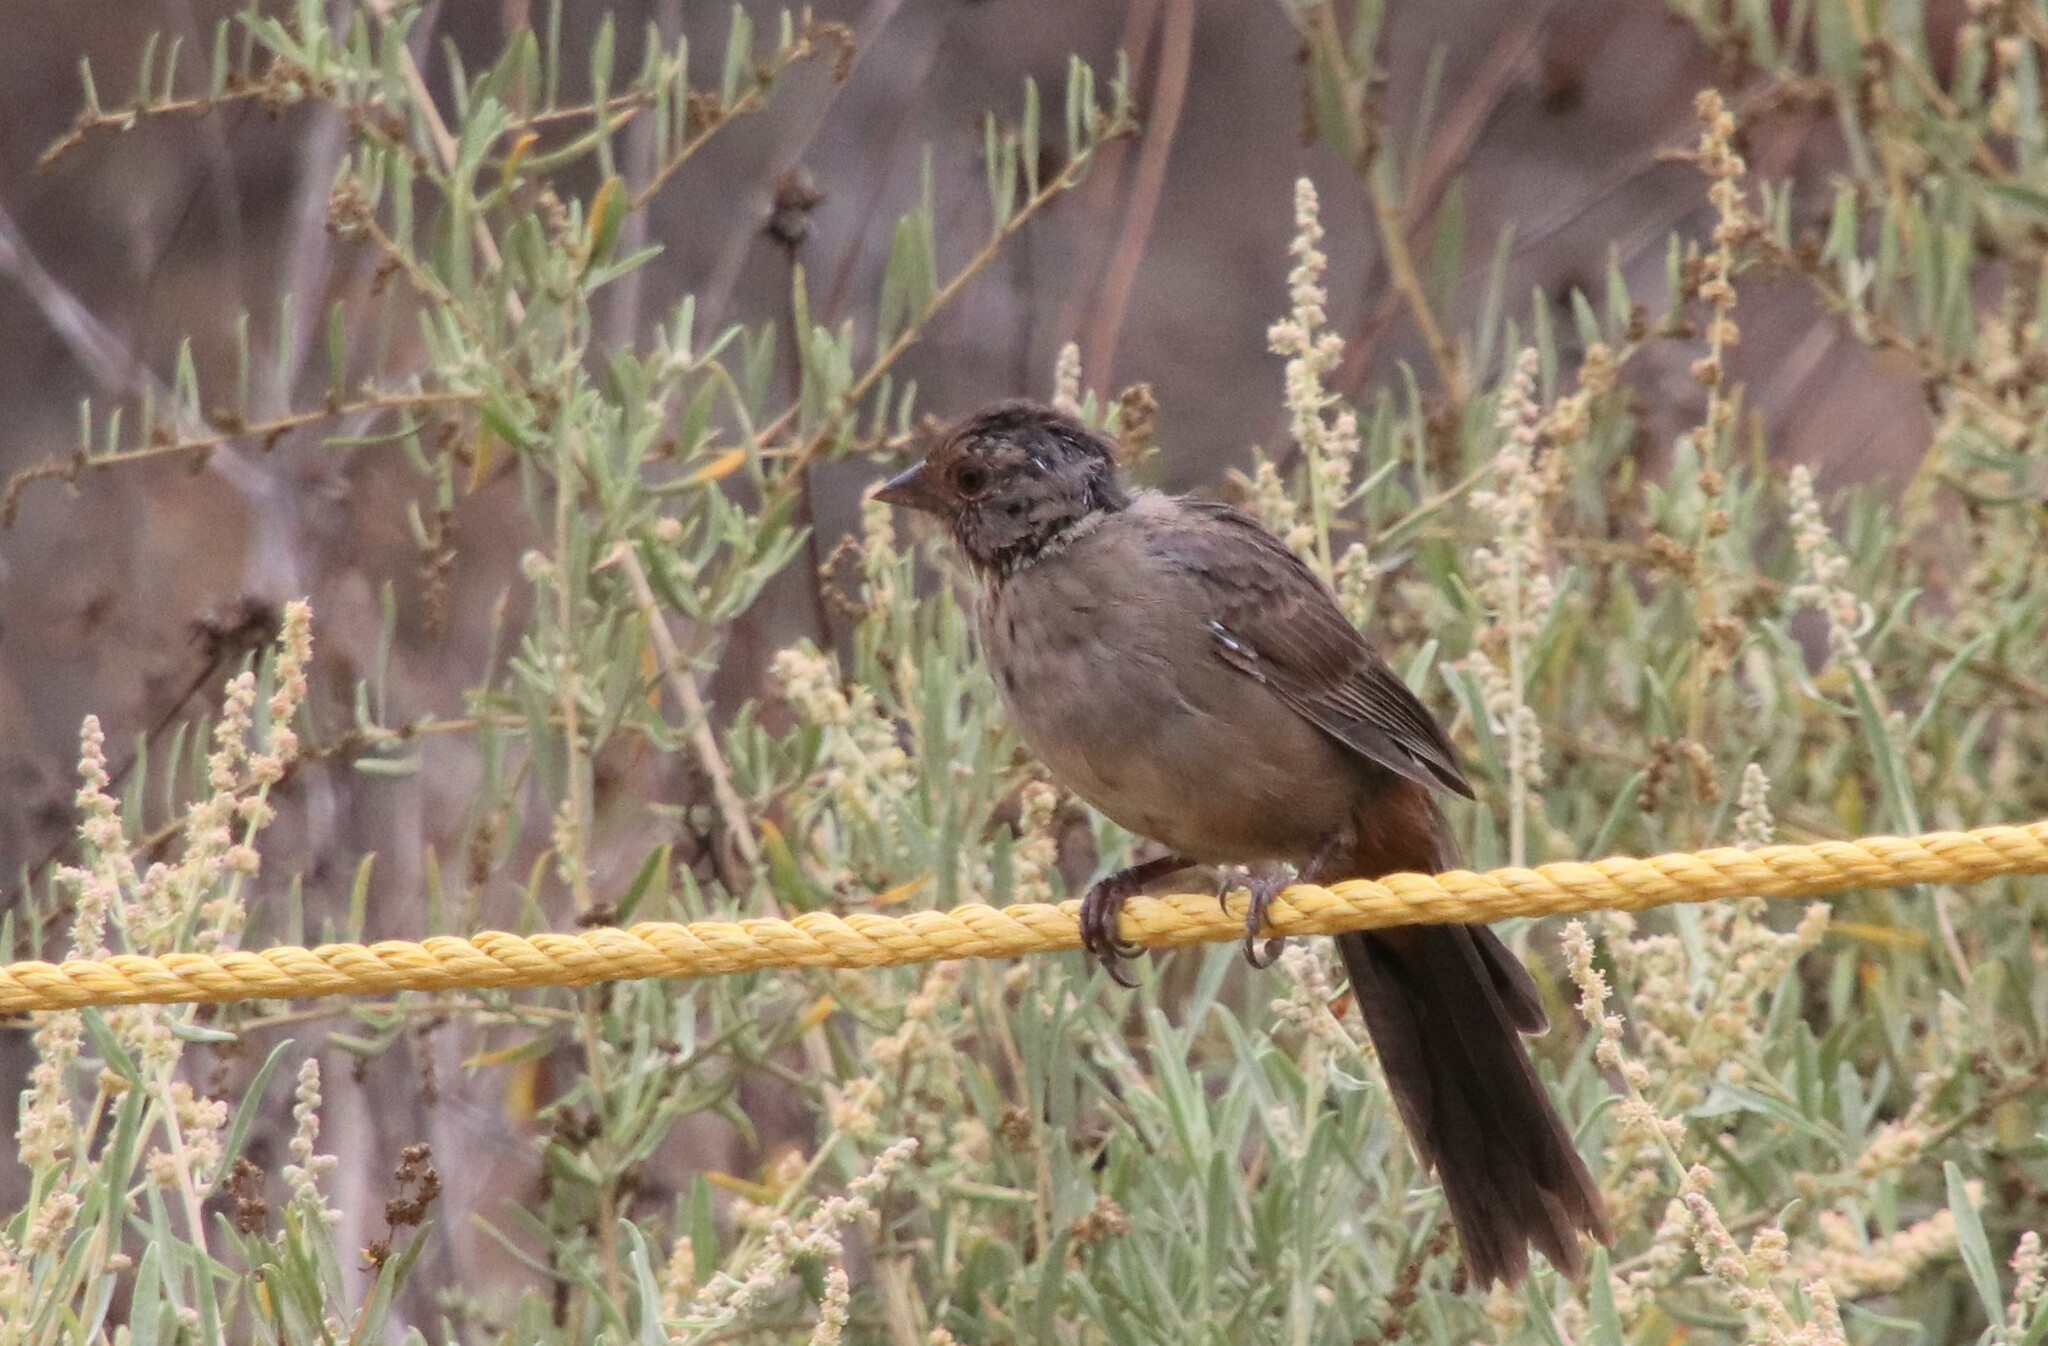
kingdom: Animalia
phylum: Chordata
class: Aves
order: Passeriformes
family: Passerellidae
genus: Melozone
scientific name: Melozone crissalis
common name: California towhee
